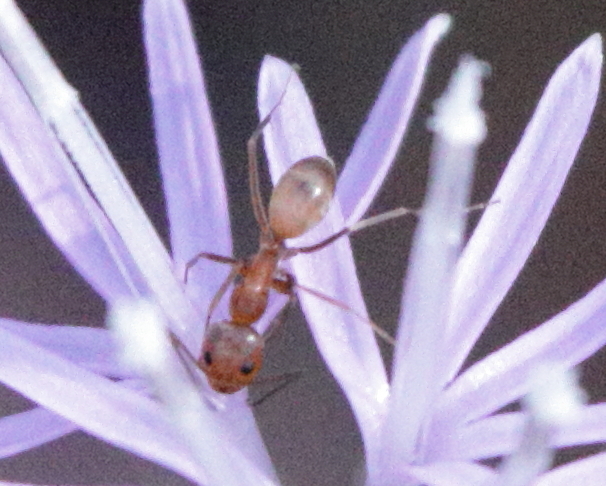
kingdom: Animalia
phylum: Arthropoda
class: Insecta
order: Hymenoptera
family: Formicidae
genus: Dorymyrmex
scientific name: Dorymyrmex bureni
